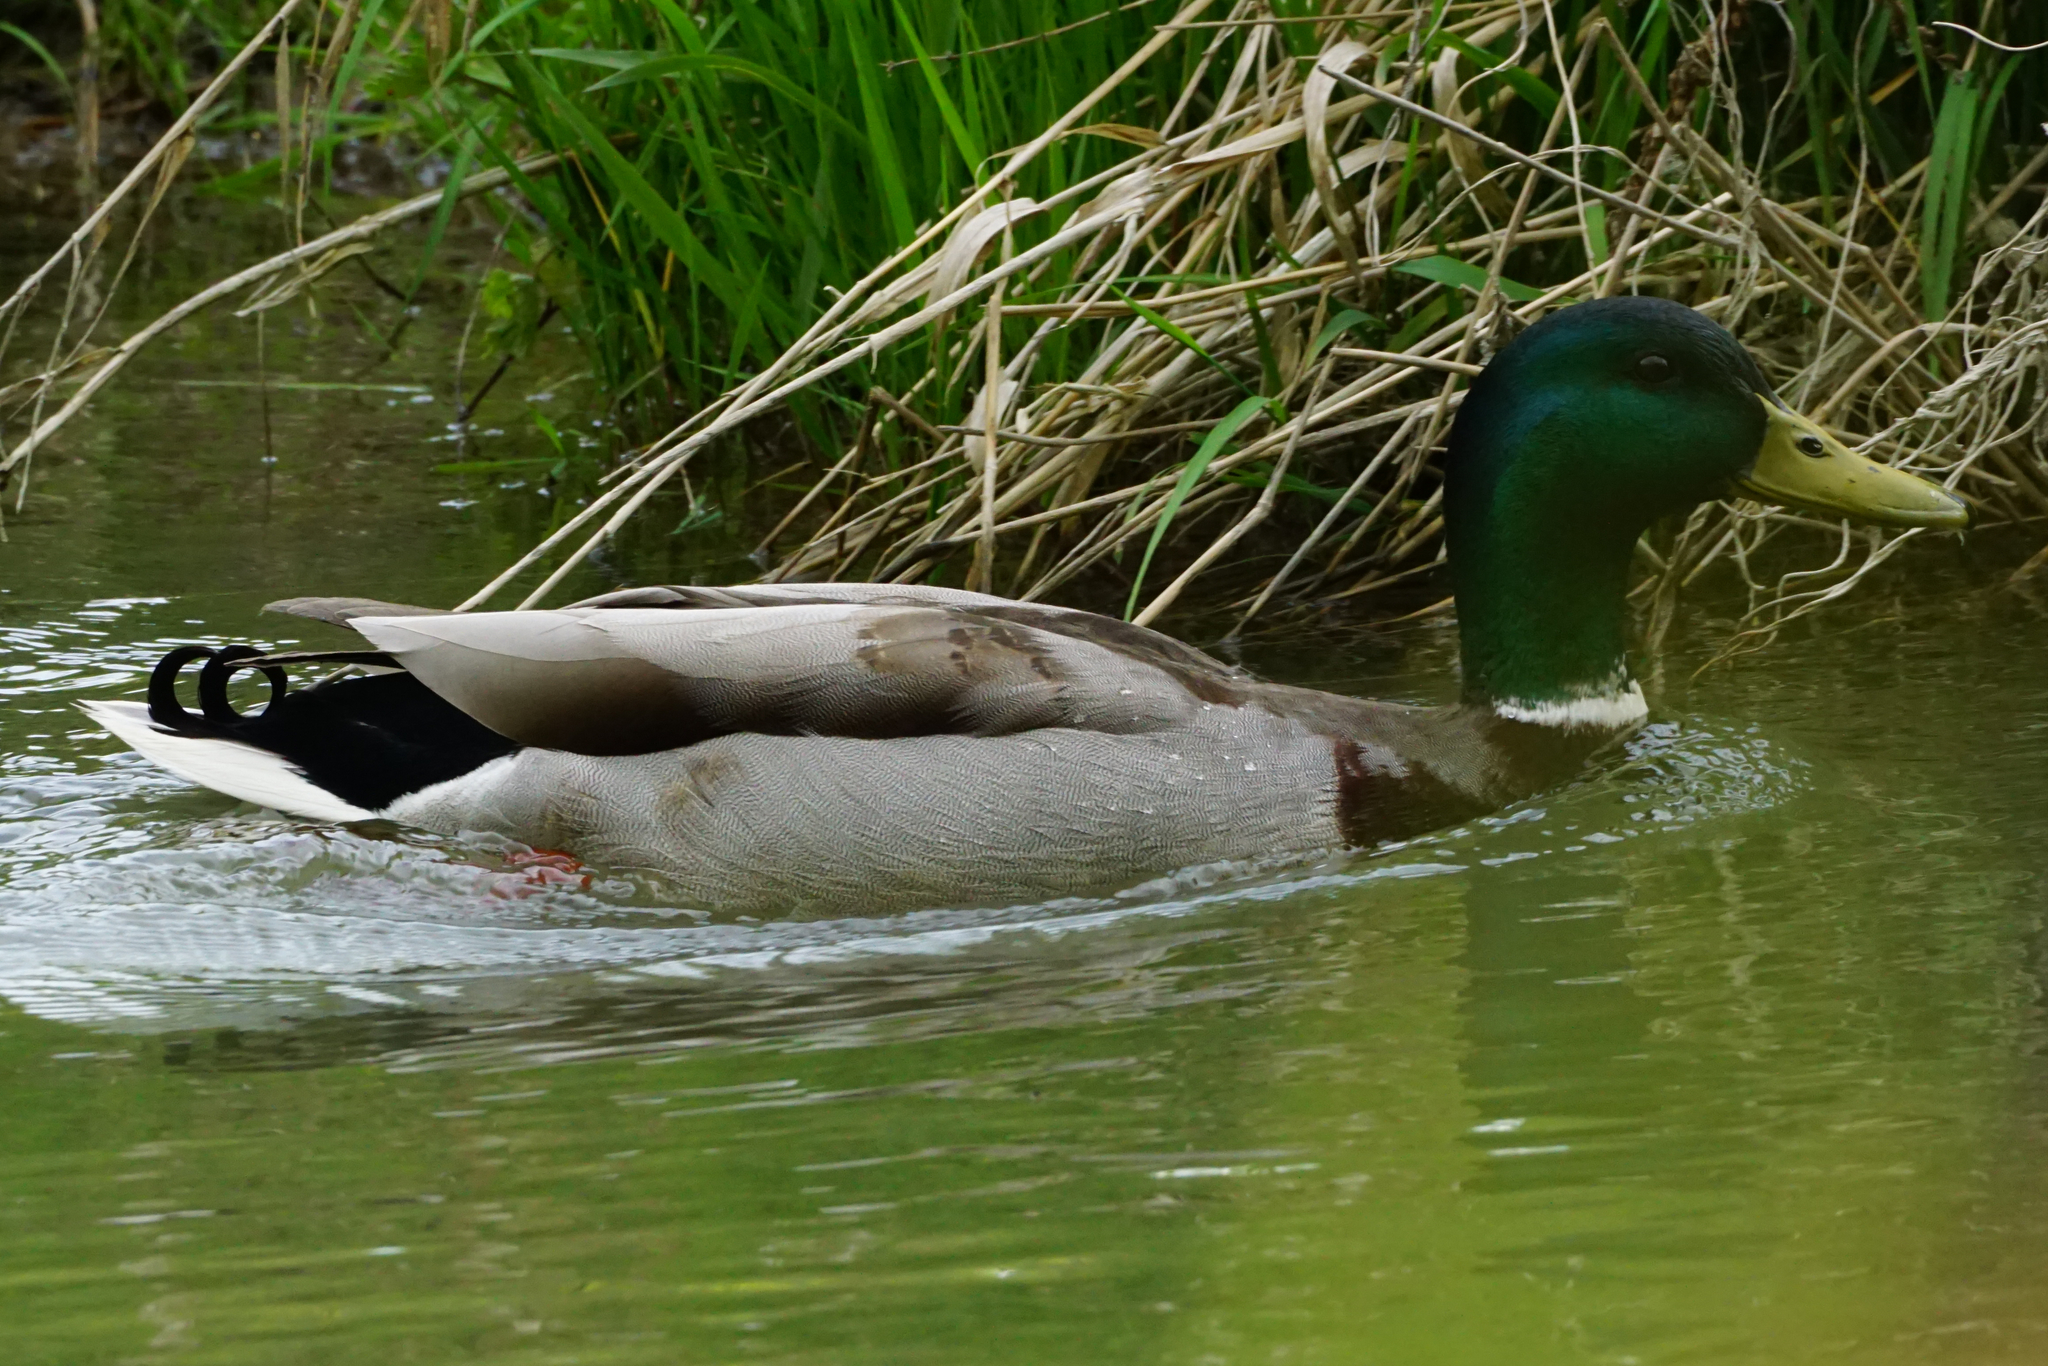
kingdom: Animalia
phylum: Chordata
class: Aves
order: Anseriformes
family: Anatidae
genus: Anas
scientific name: Anas platyrhynchos
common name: Mallard
